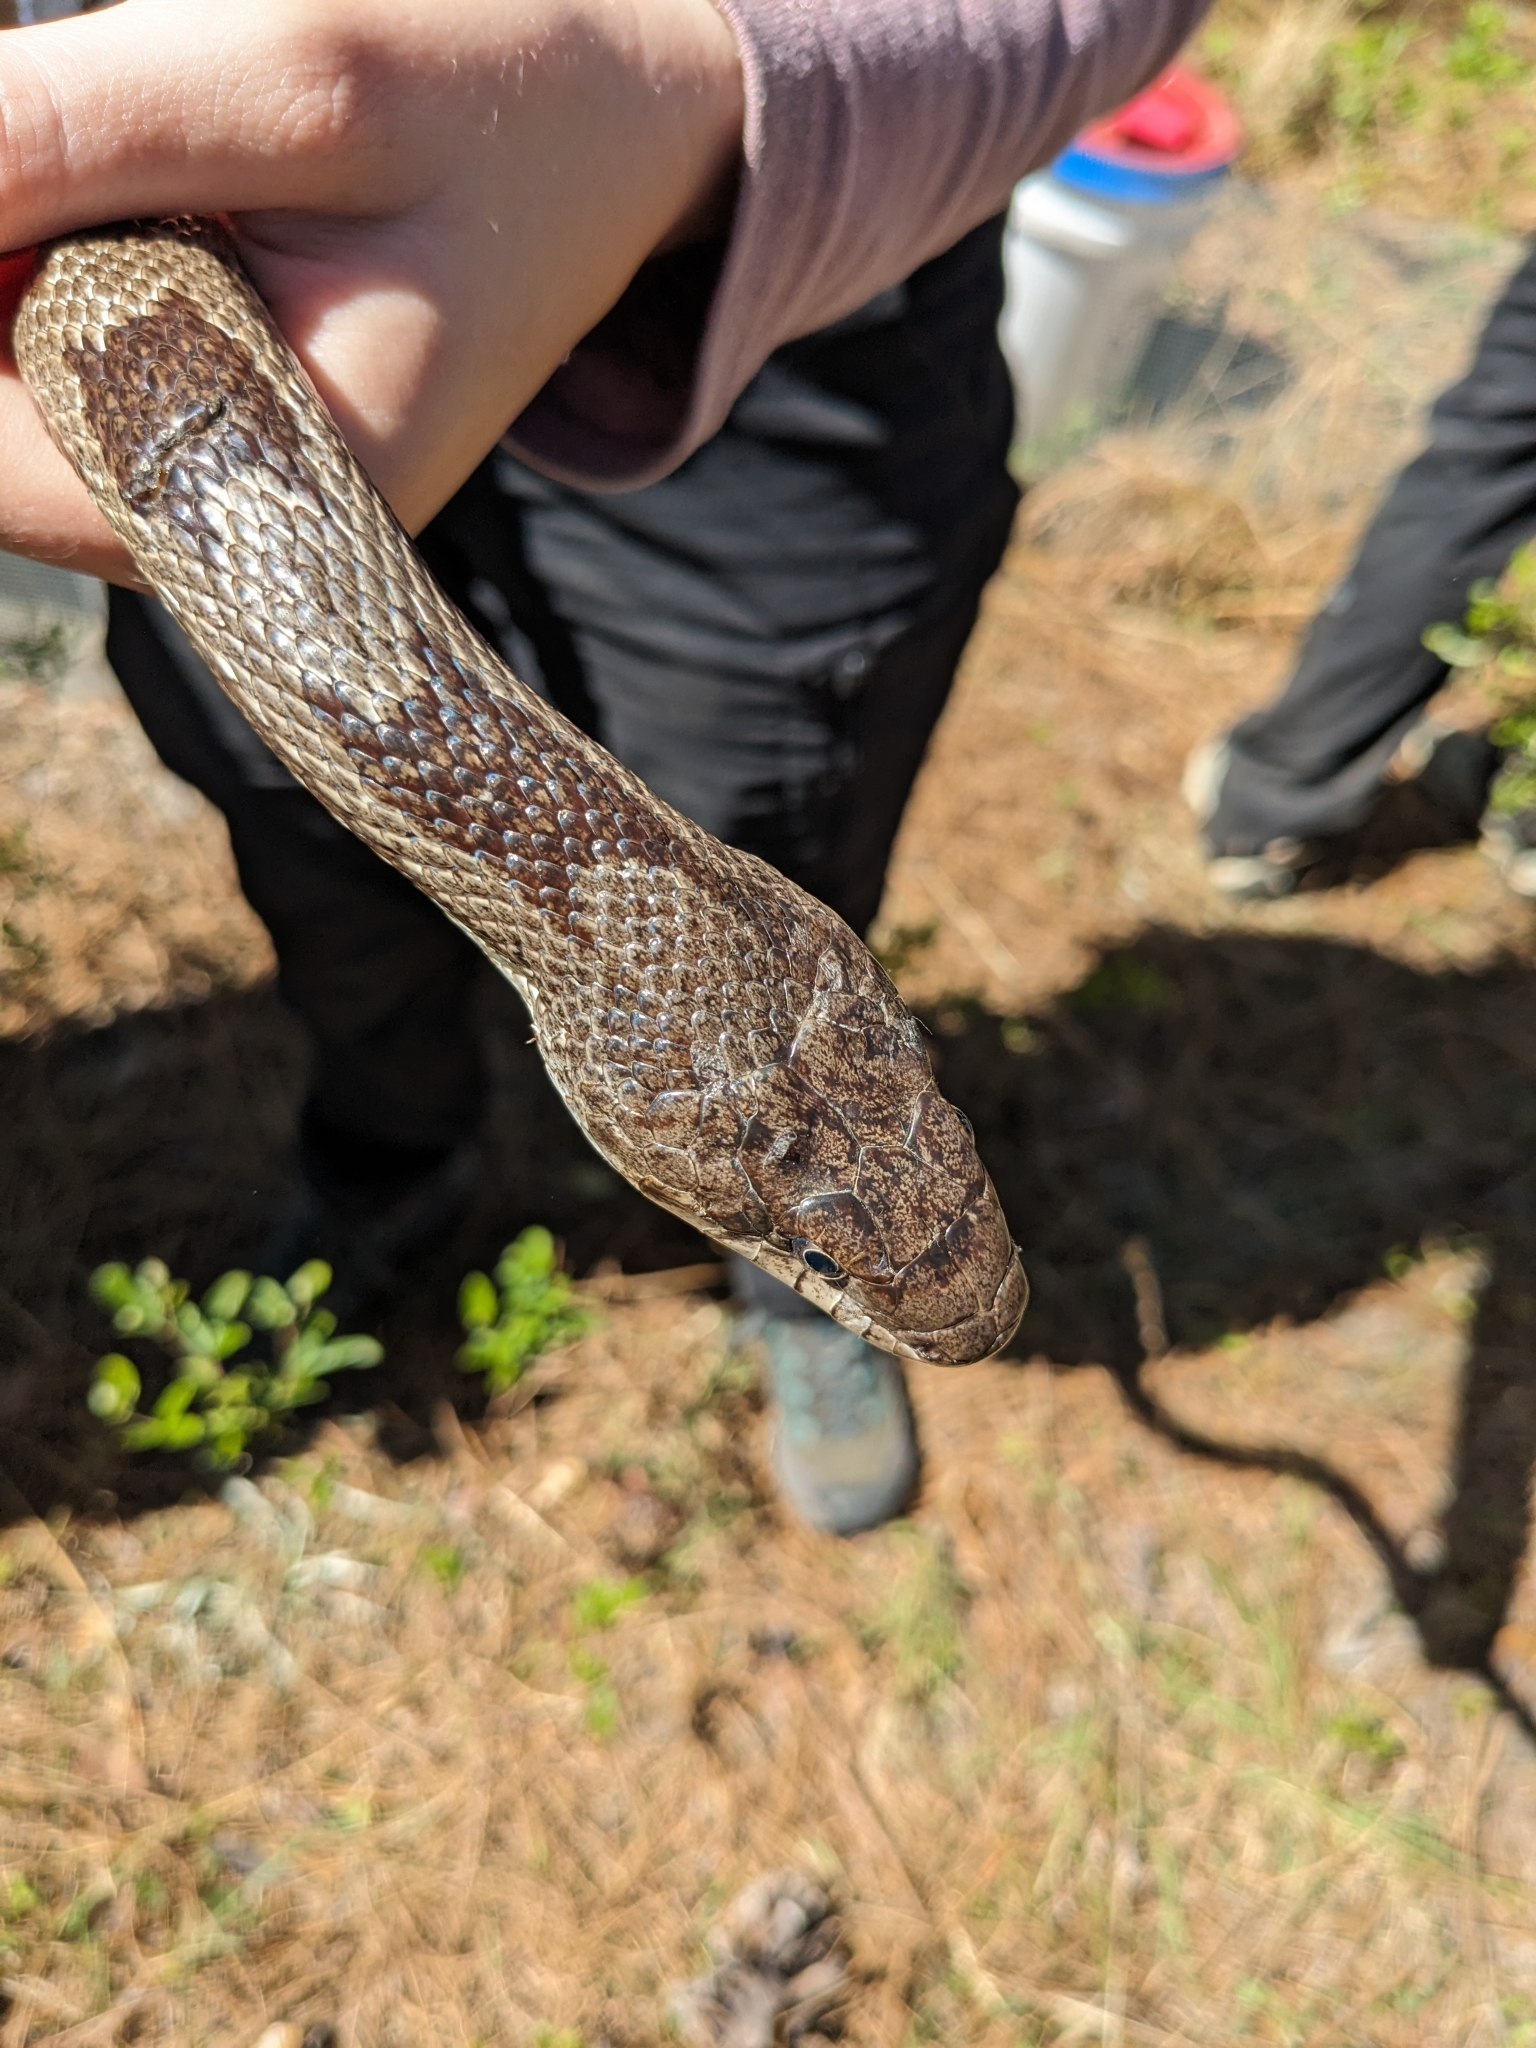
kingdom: Animalia
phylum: Chordata
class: Squamata
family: Colubridae
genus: Pantherophis
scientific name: Pantherophis spiloides
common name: Gray rat snake
